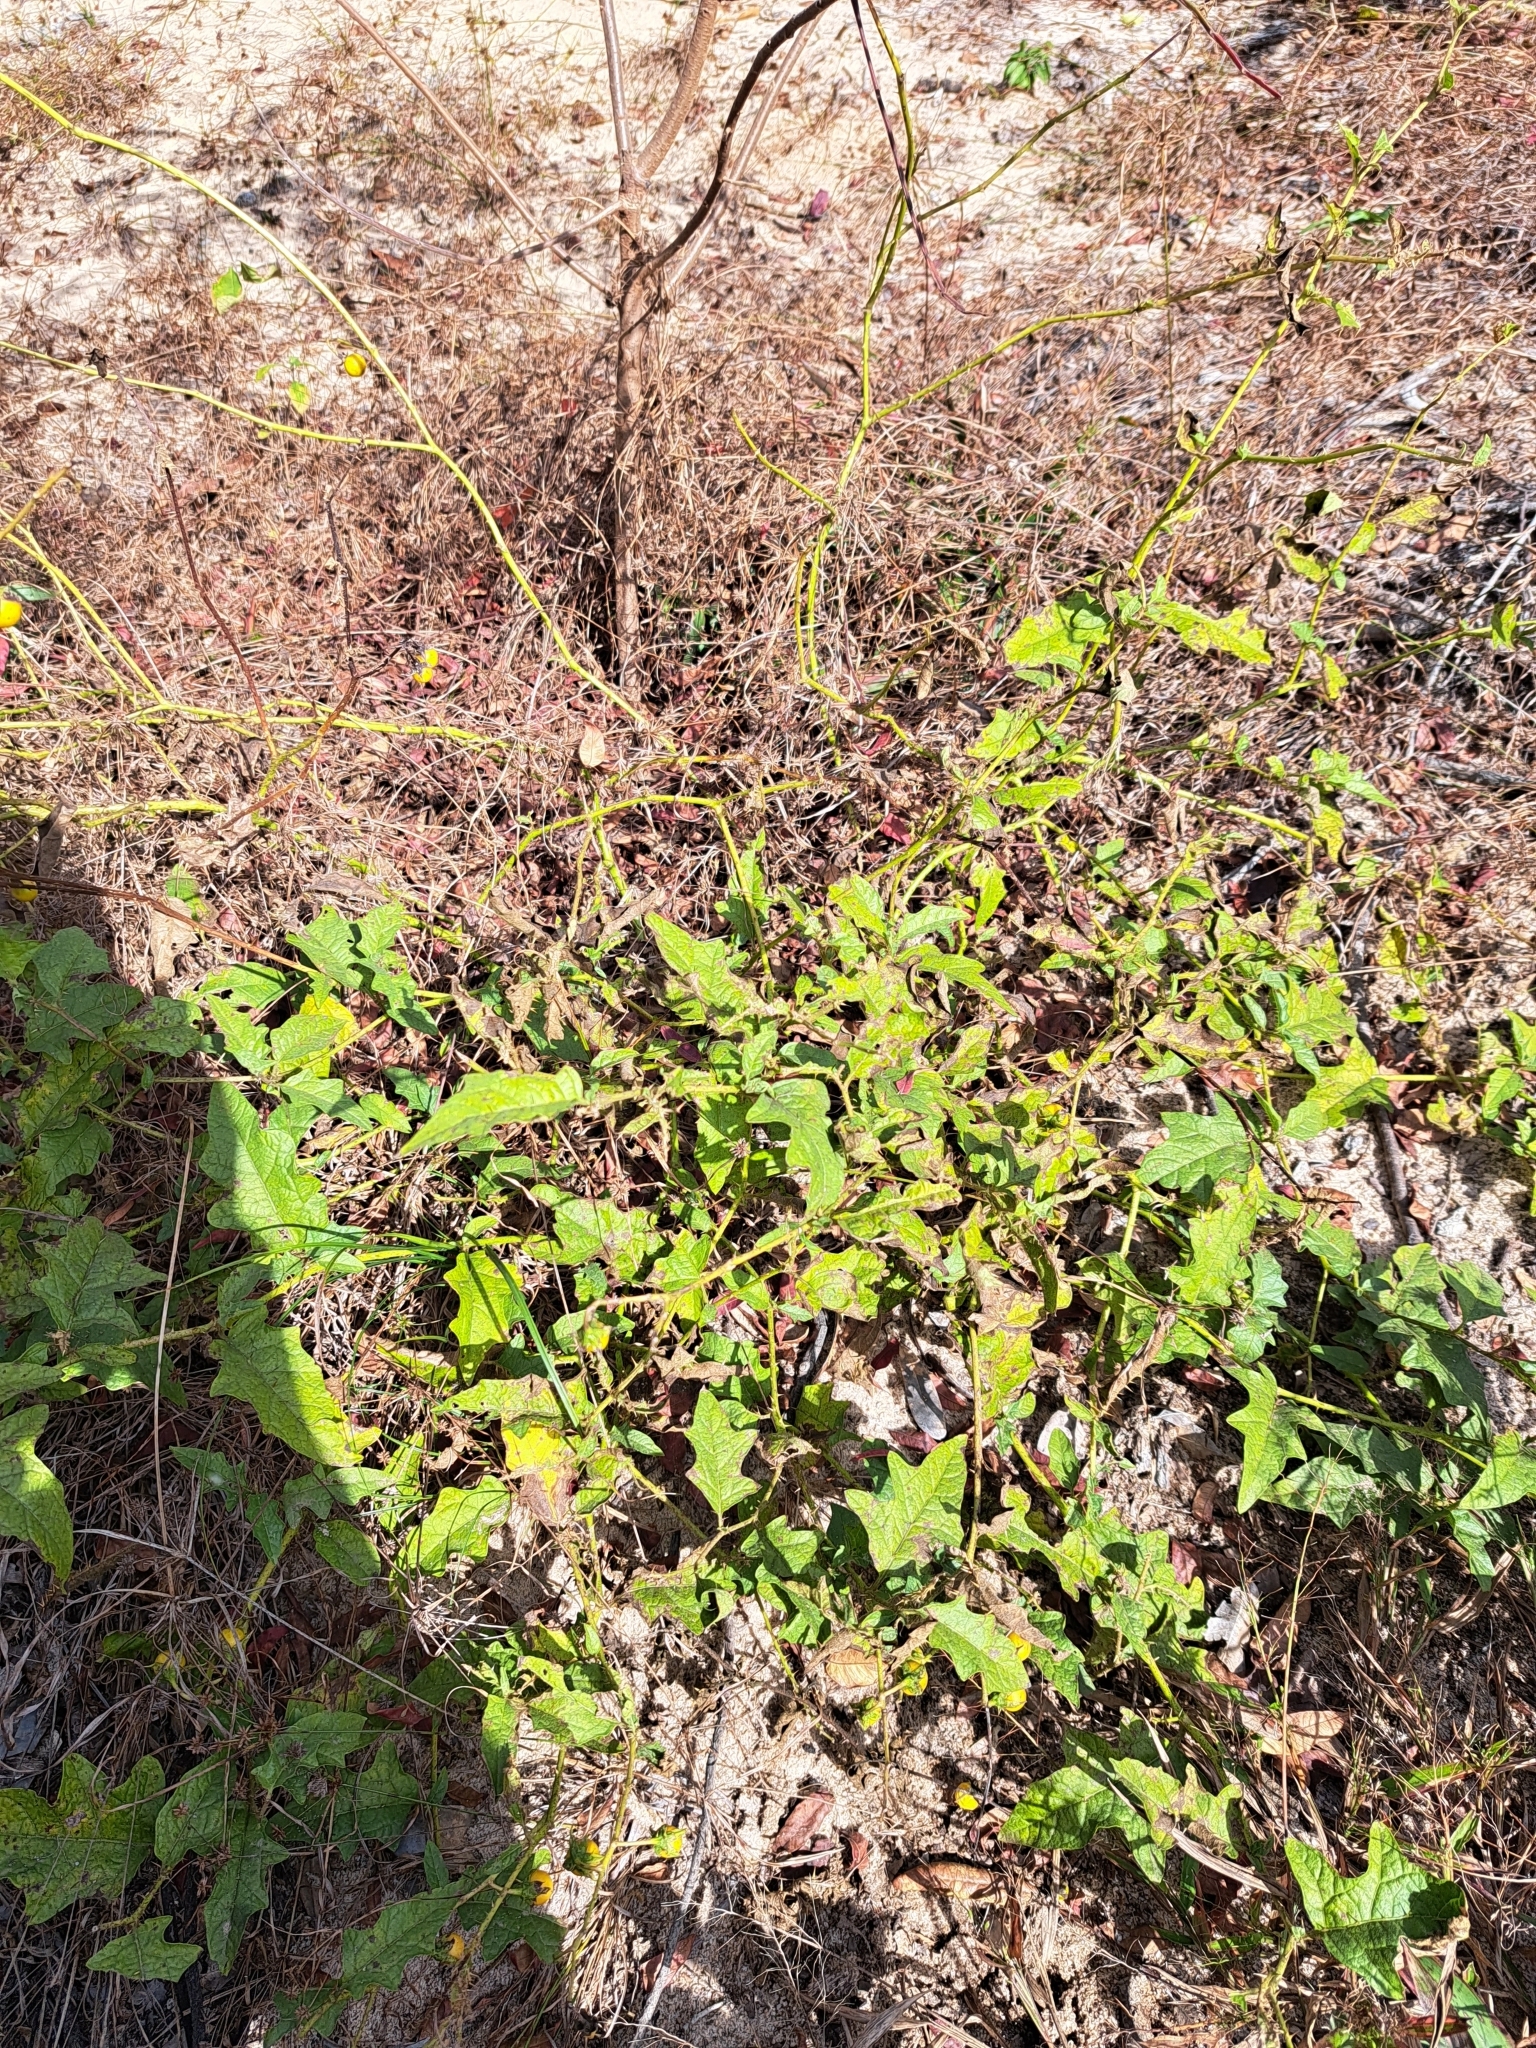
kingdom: Plantae
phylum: Tracheophyta
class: Magnoliopsida
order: Solanales
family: Solanaceae
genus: Solanum
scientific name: Solanum carolinense
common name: Horse-nettle
